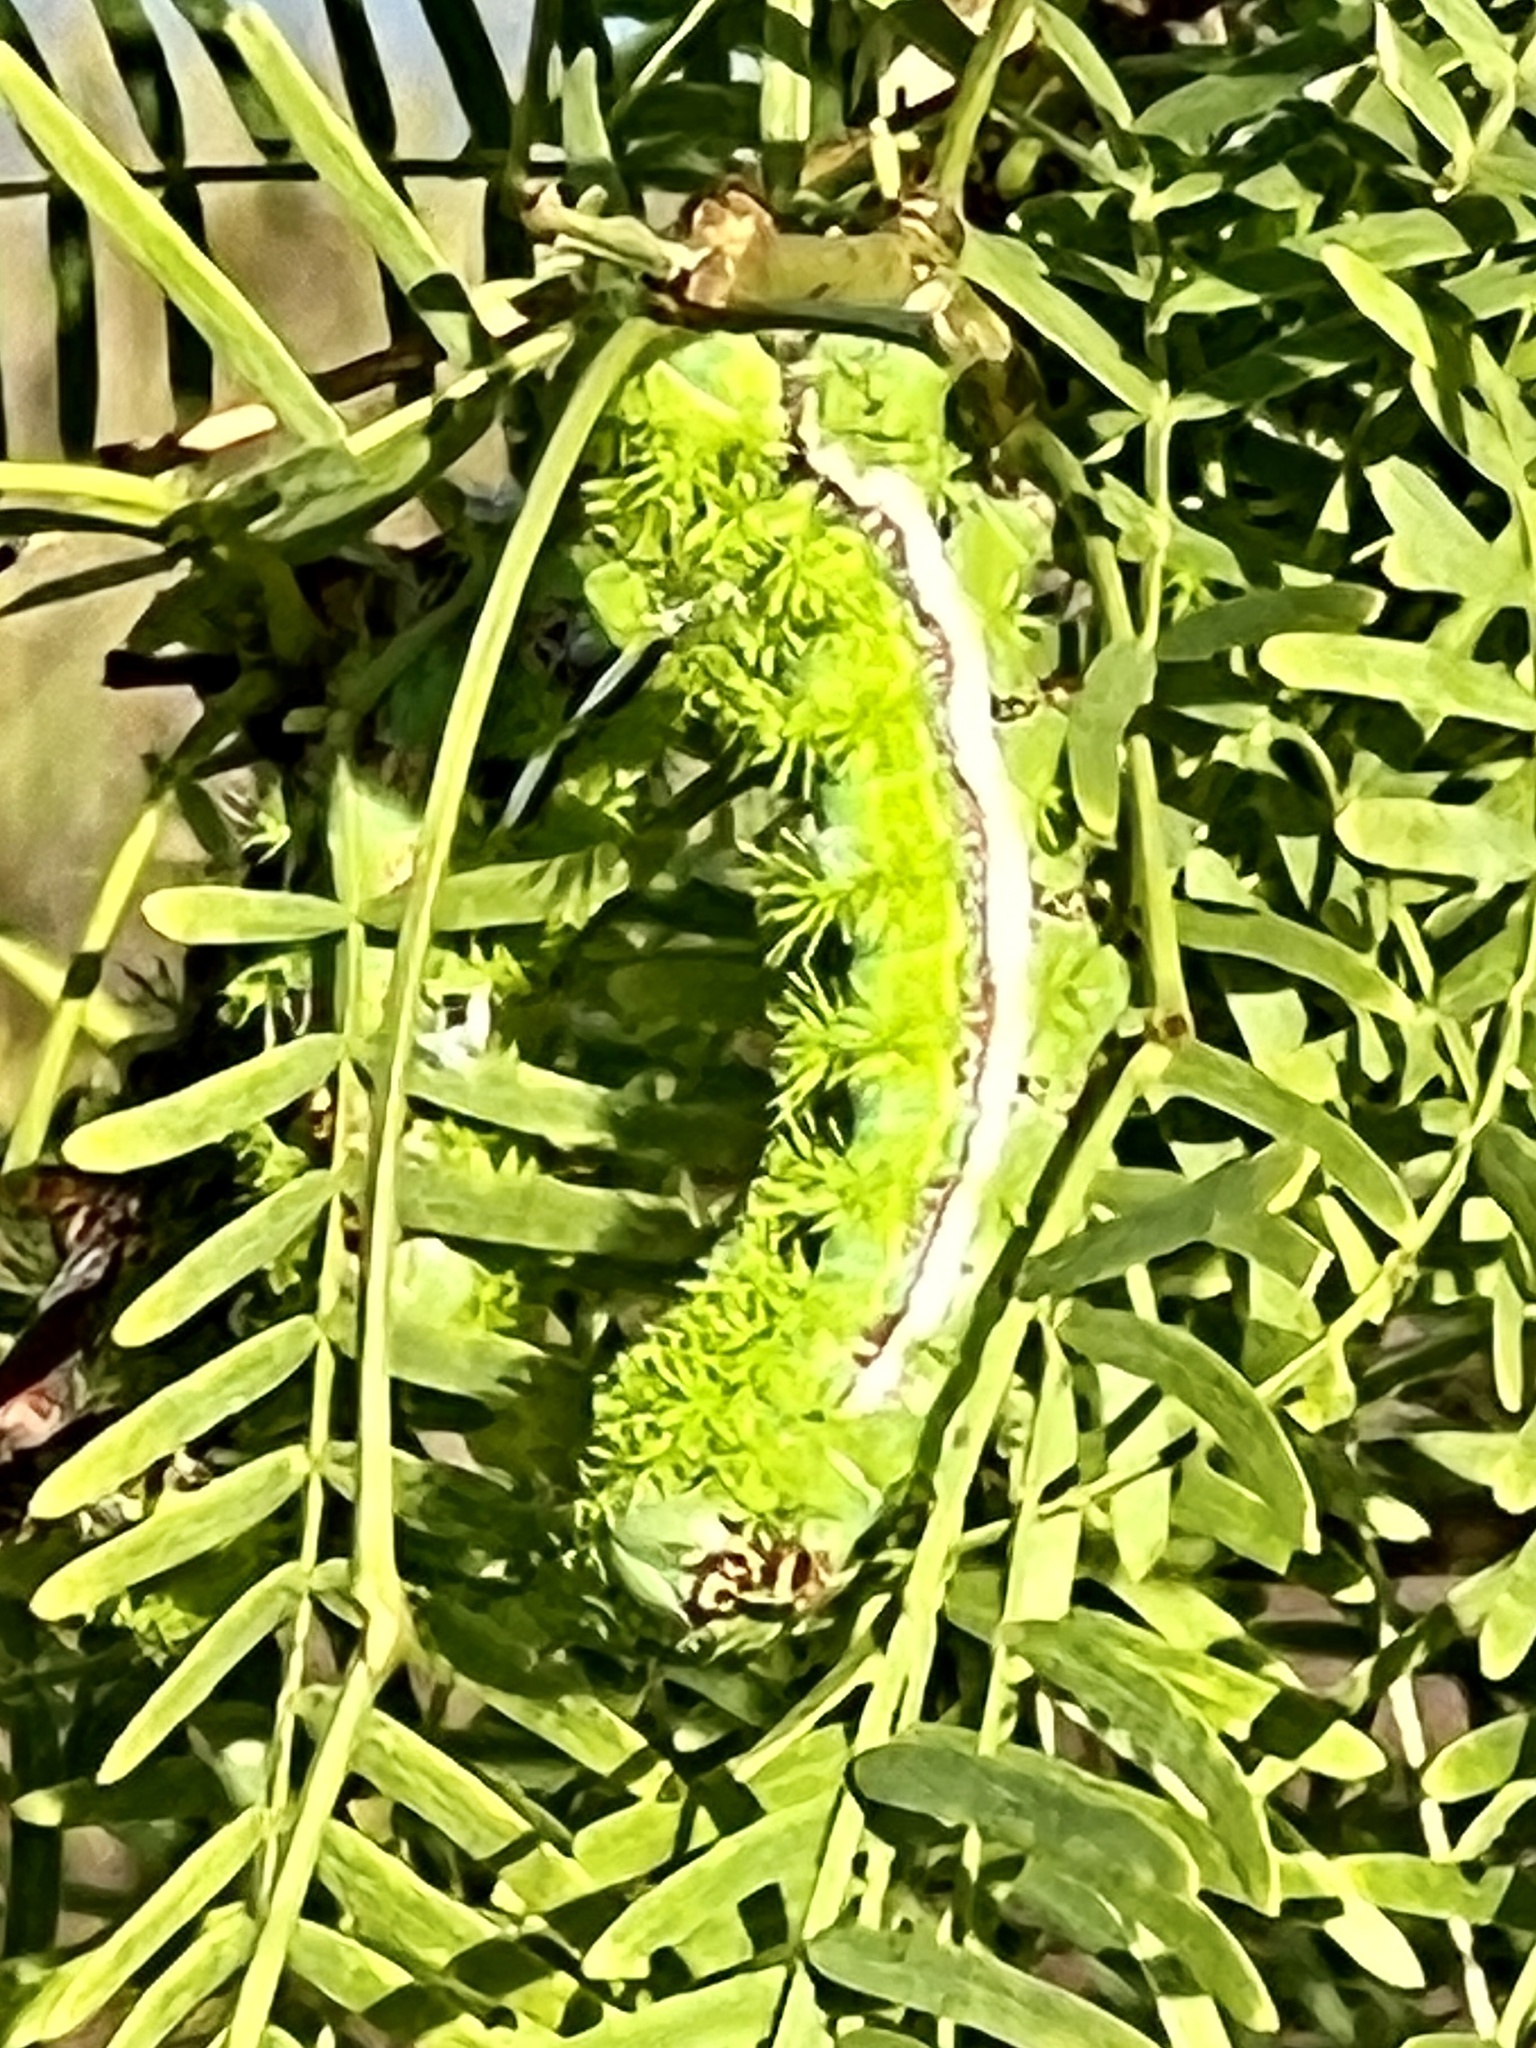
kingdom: Animalia
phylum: Arthropoda
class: Insecta
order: Lepidoptera
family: Saturniidae
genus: Automeris
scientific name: Automeris io
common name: Io moth
